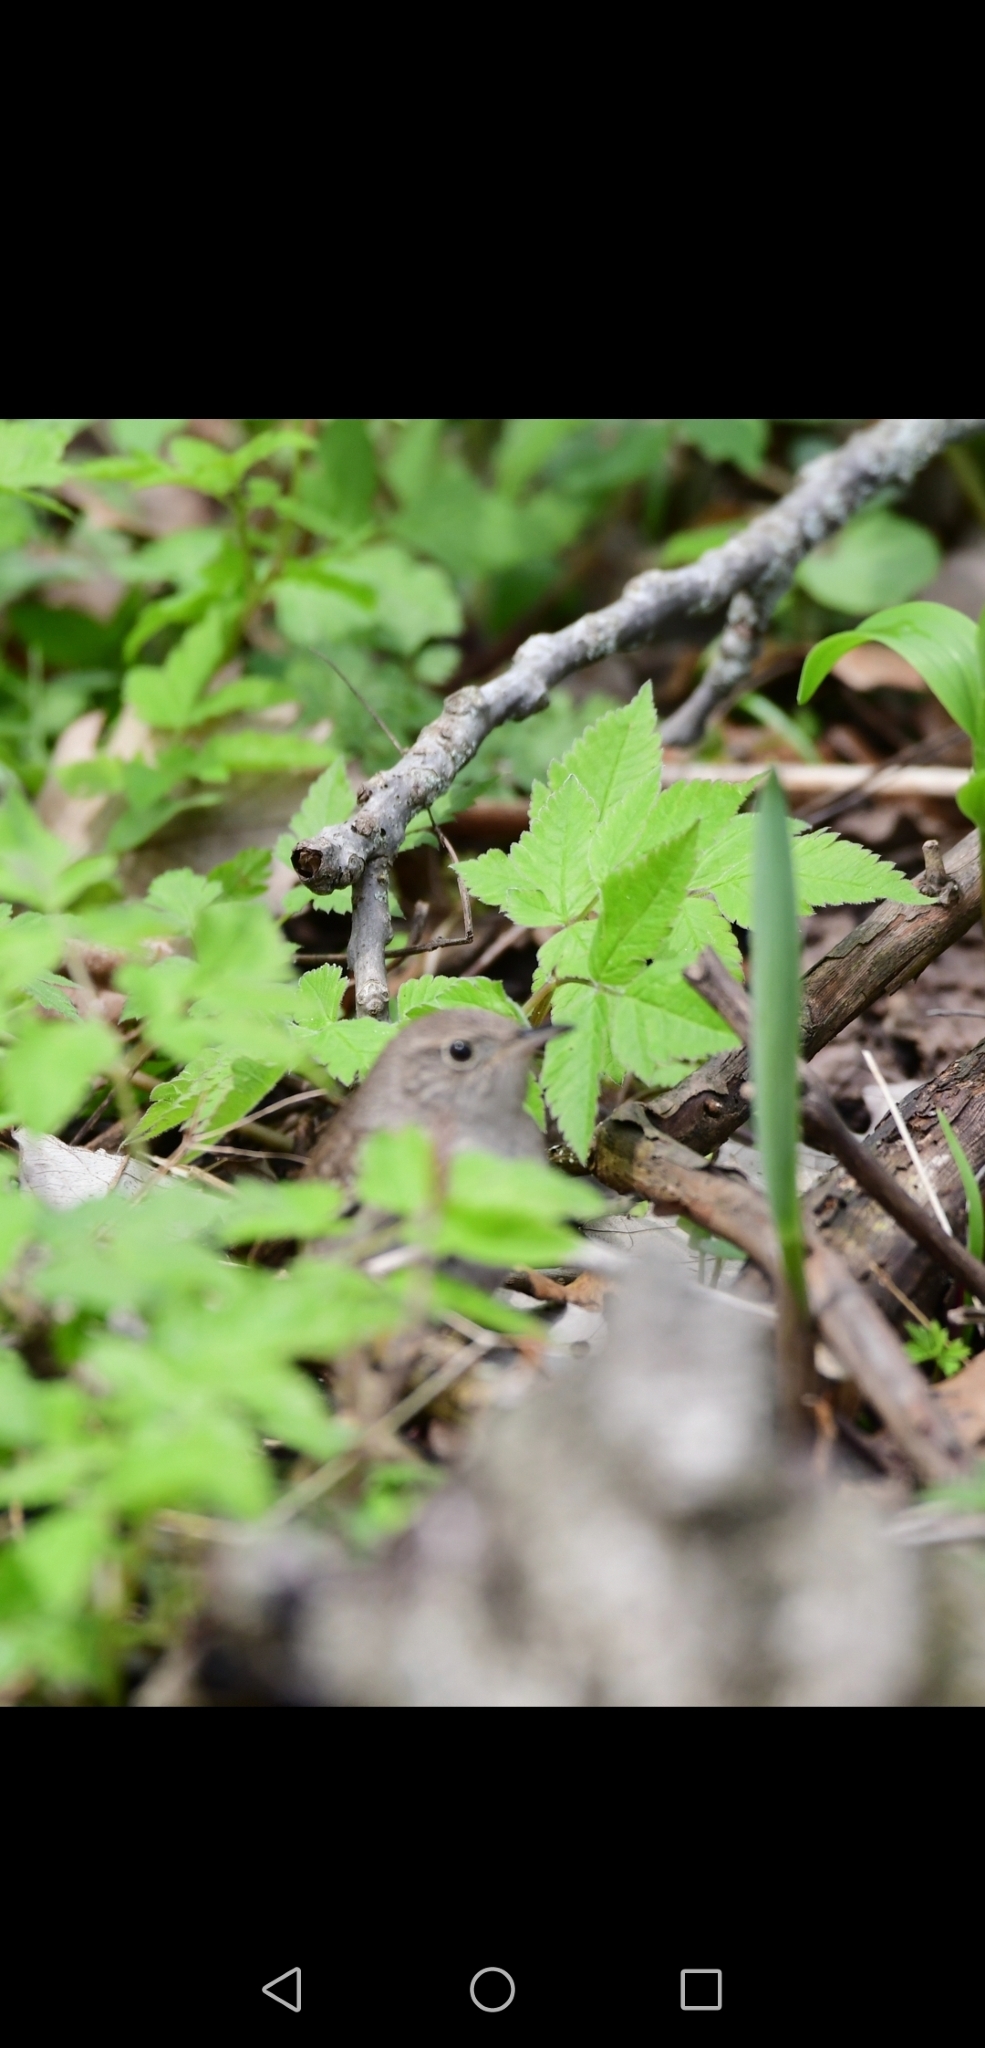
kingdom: Animalia
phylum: Chordata
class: Aves
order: Passeriformes
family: Troglodytidae
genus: Troglodytes
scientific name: Troglodytes aedon
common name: House wren
